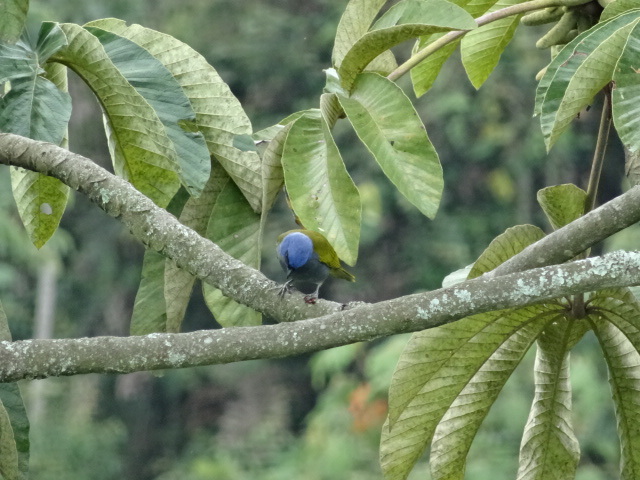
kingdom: Animalia
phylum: Chordata
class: Aves
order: Passeriformes
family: Thraupidae
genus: Sporathraupis
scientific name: Sporathraupis cyanocephala
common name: Blue-capped tanager
